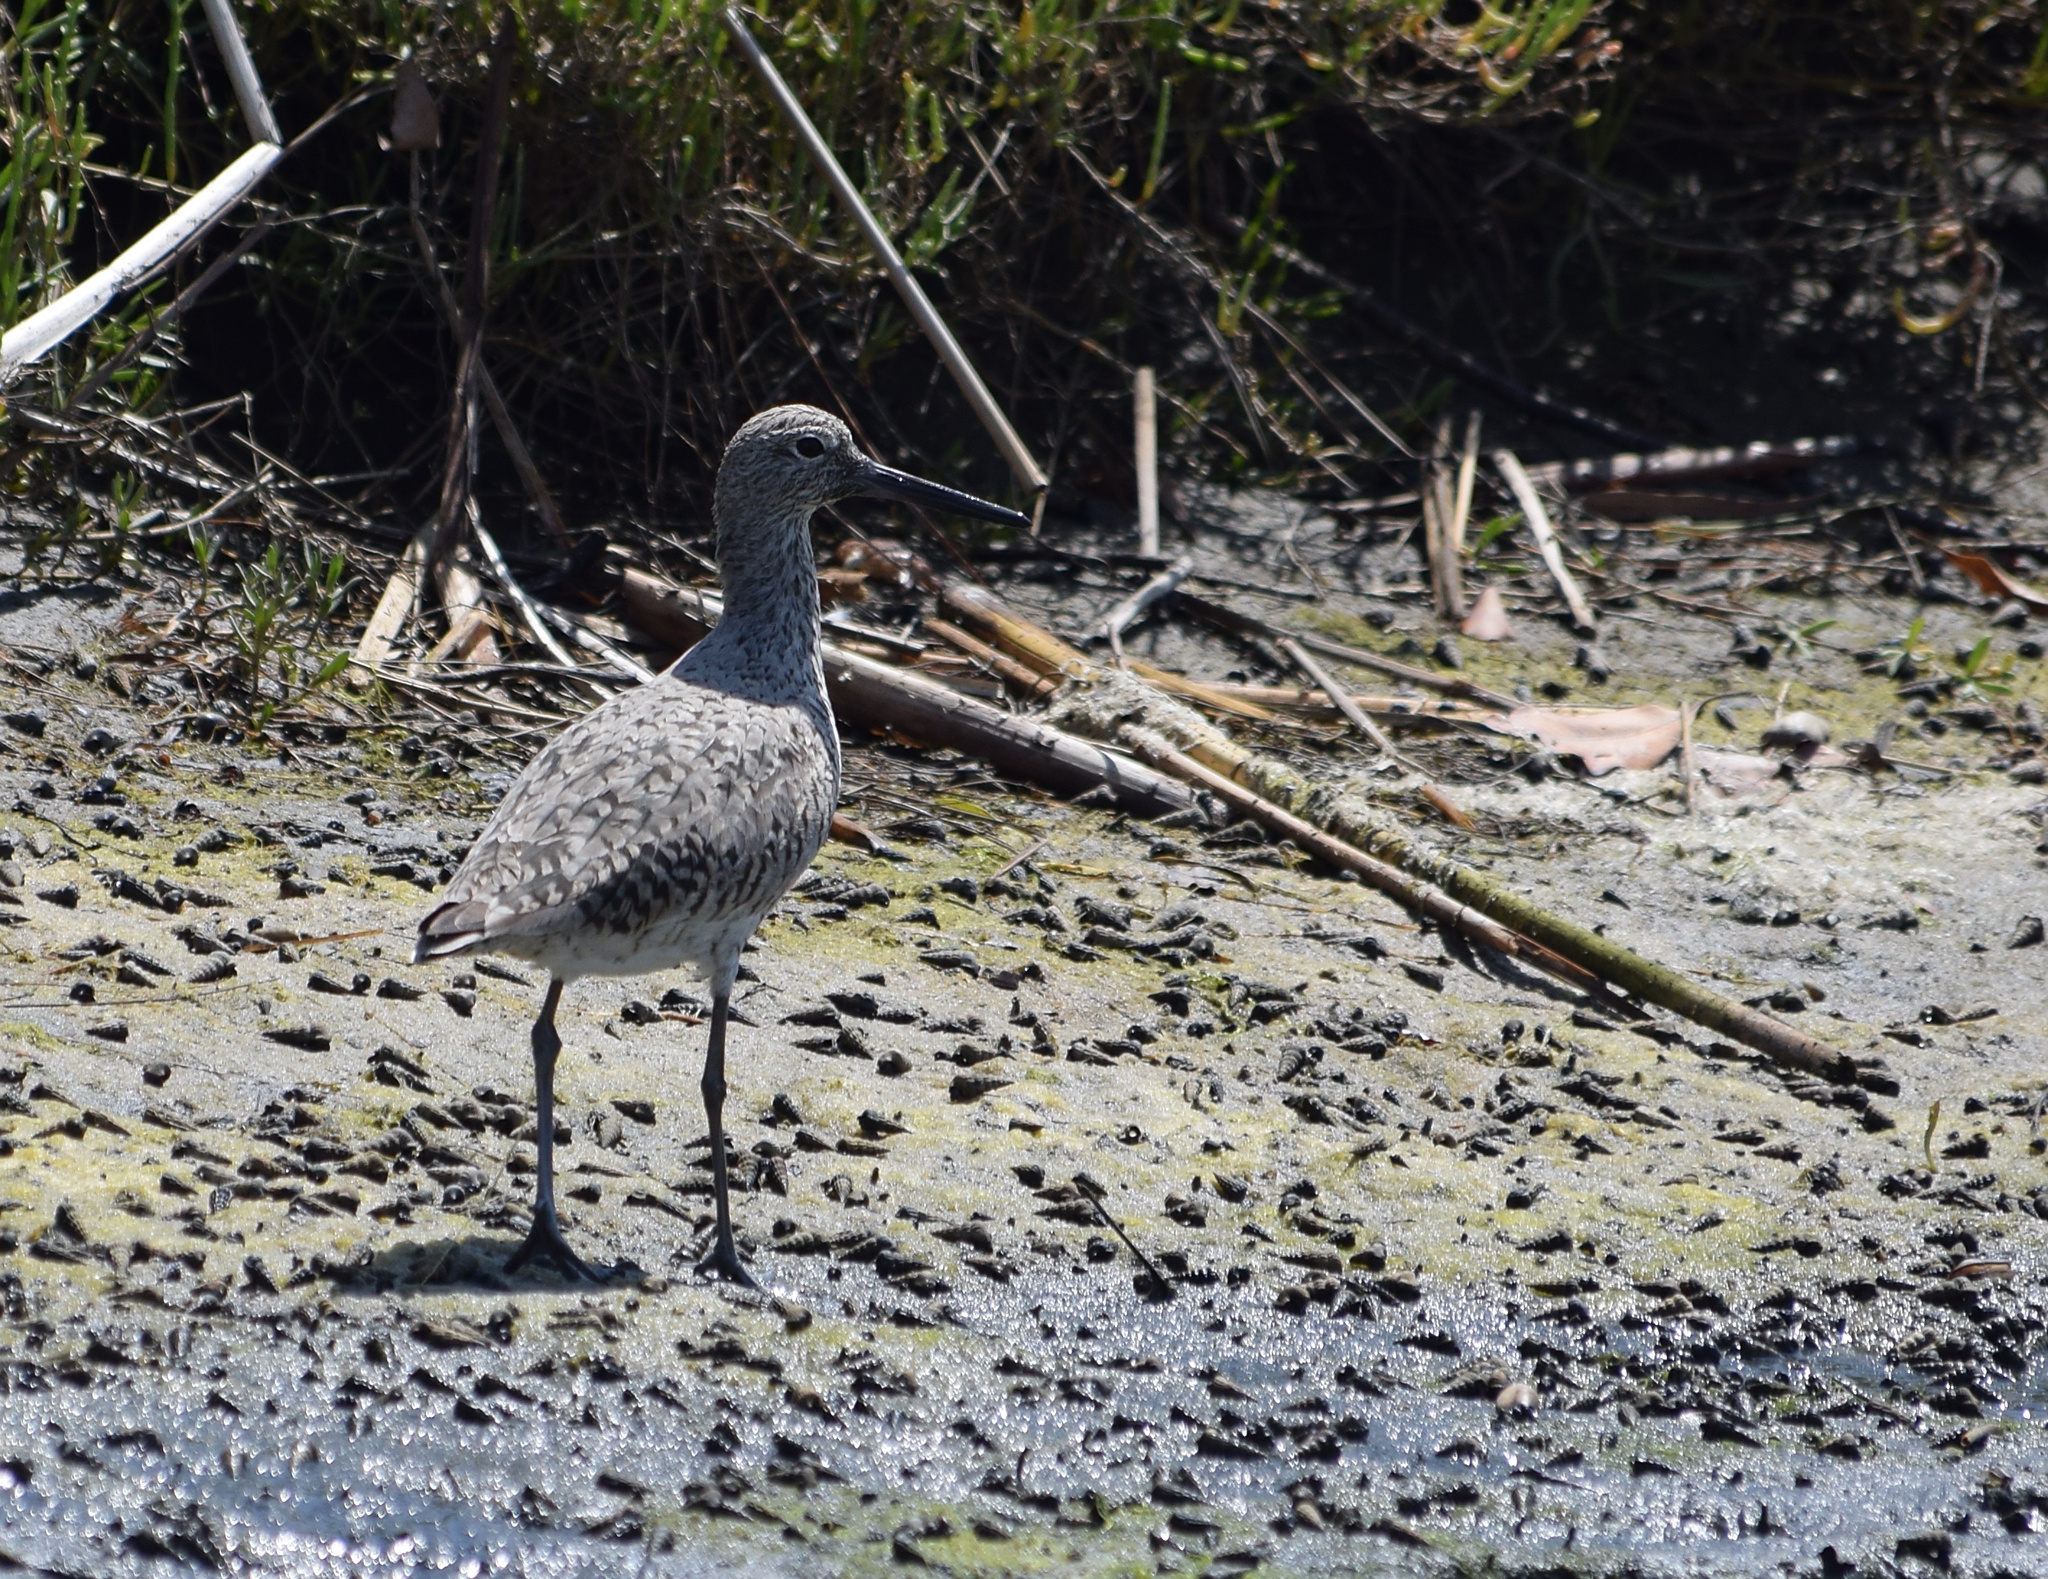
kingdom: Animalia
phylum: Chordata
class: Aves
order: Charadriiformes
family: Scolopacidae
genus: Tringa
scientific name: Tringa semipalmata
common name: Willet
